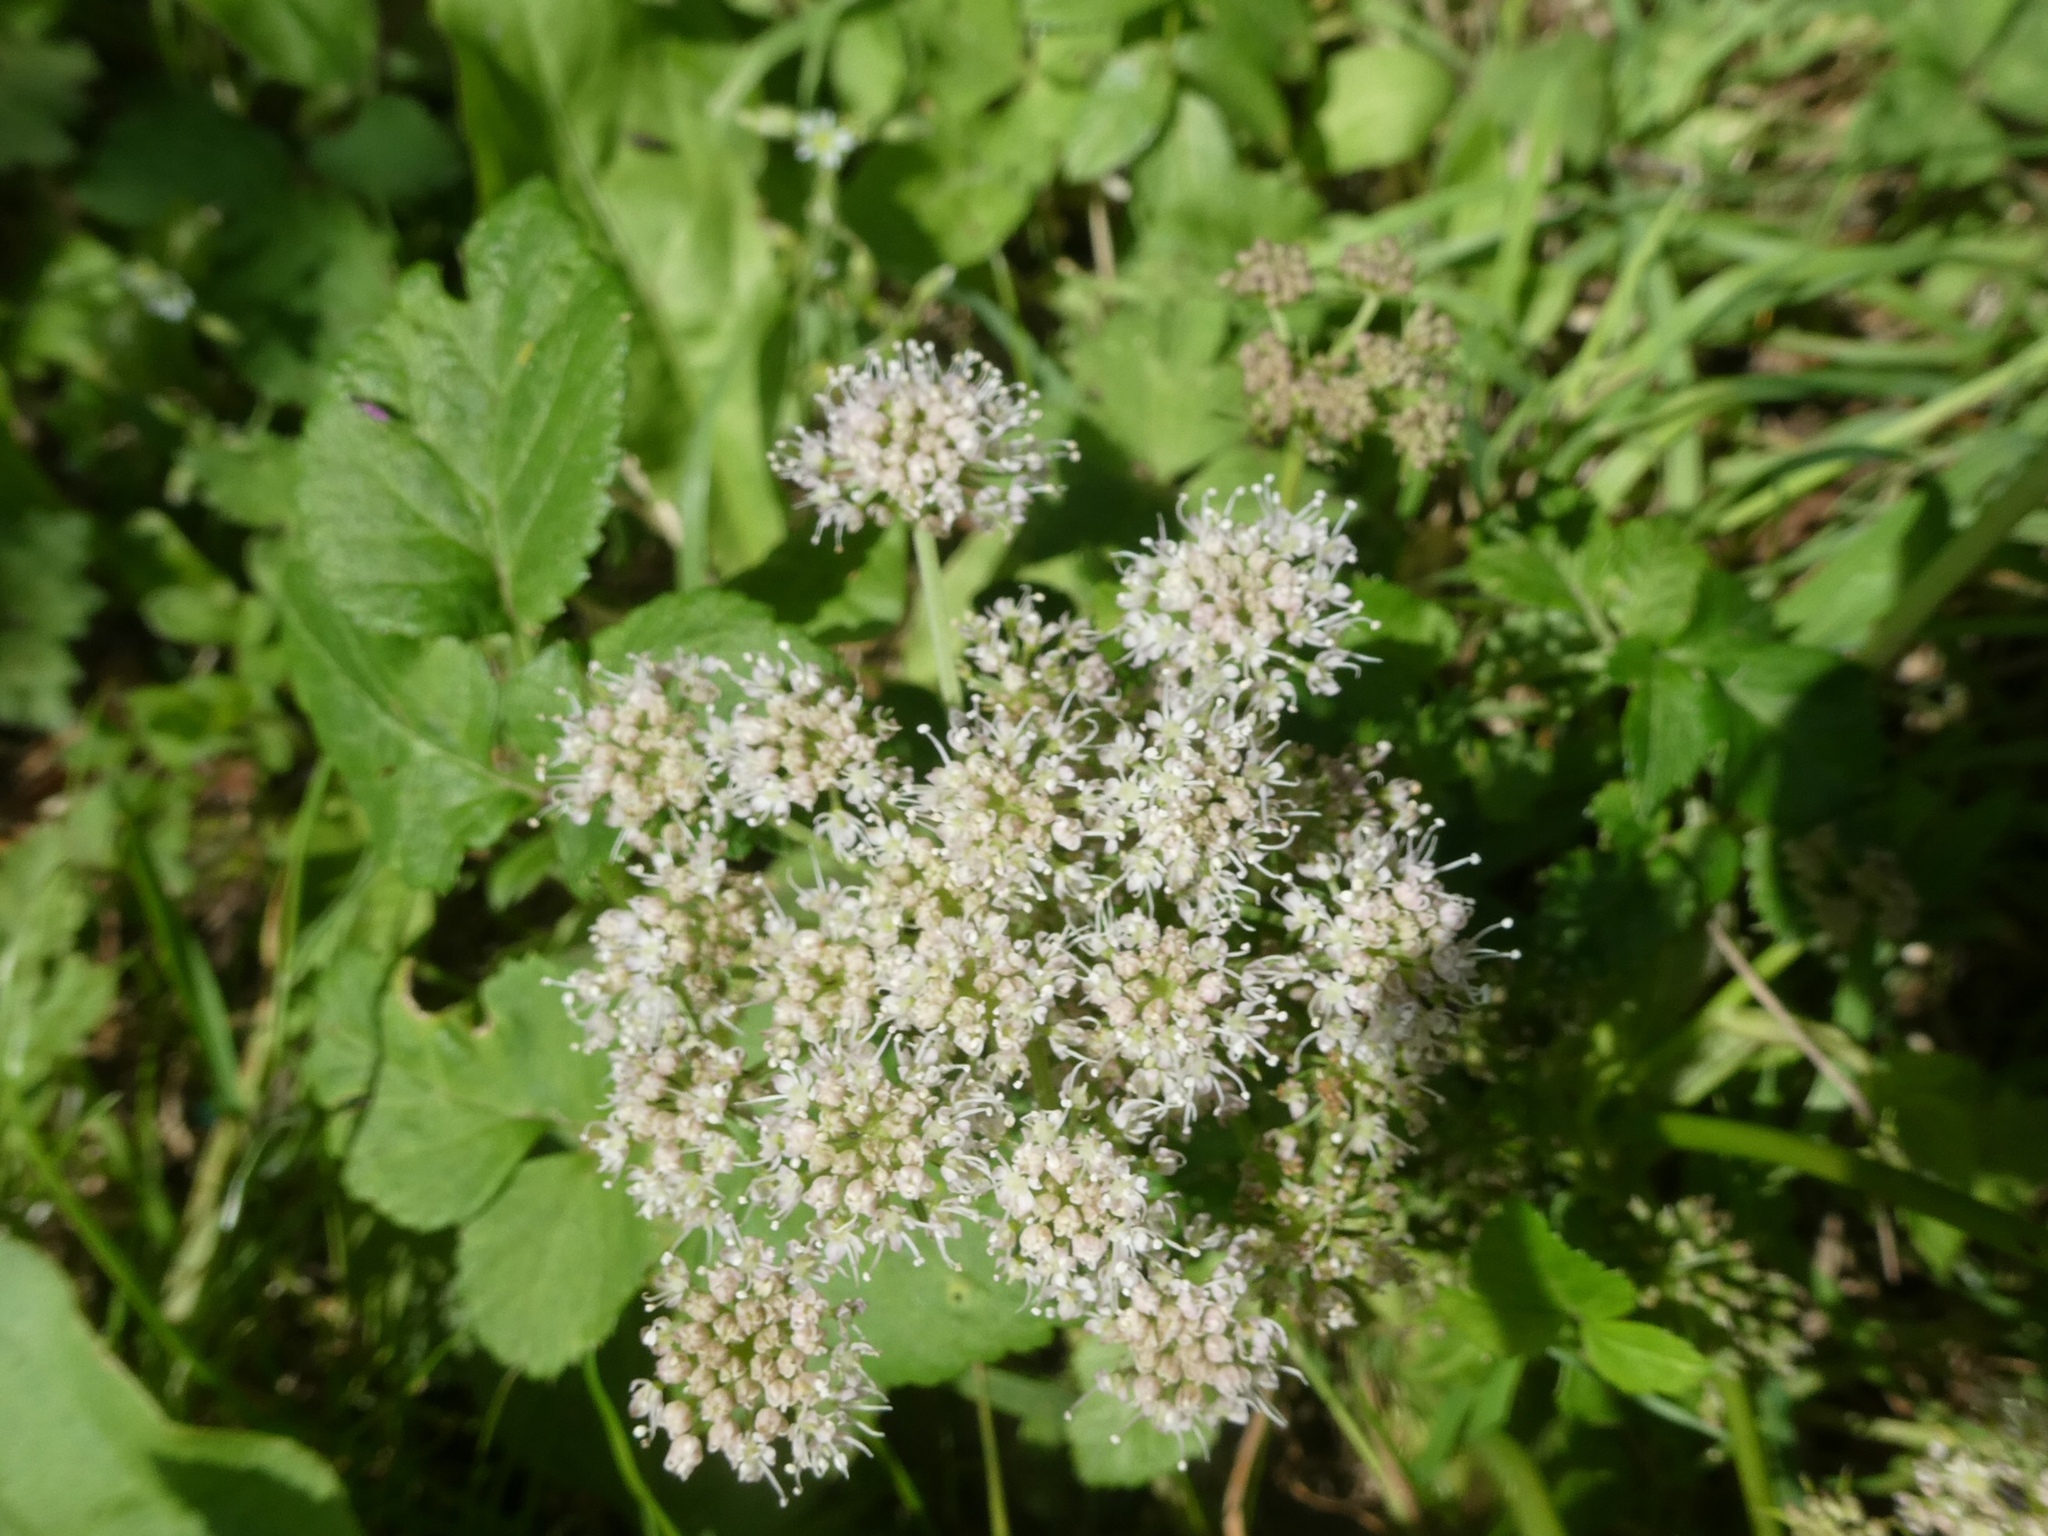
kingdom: Plantae
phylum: Tracheophyta
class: Magnoliopsida
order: Apiales
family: Apiaceae
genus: Aegopodium
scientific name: Aegopodium podagraria
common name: Ground-elder
